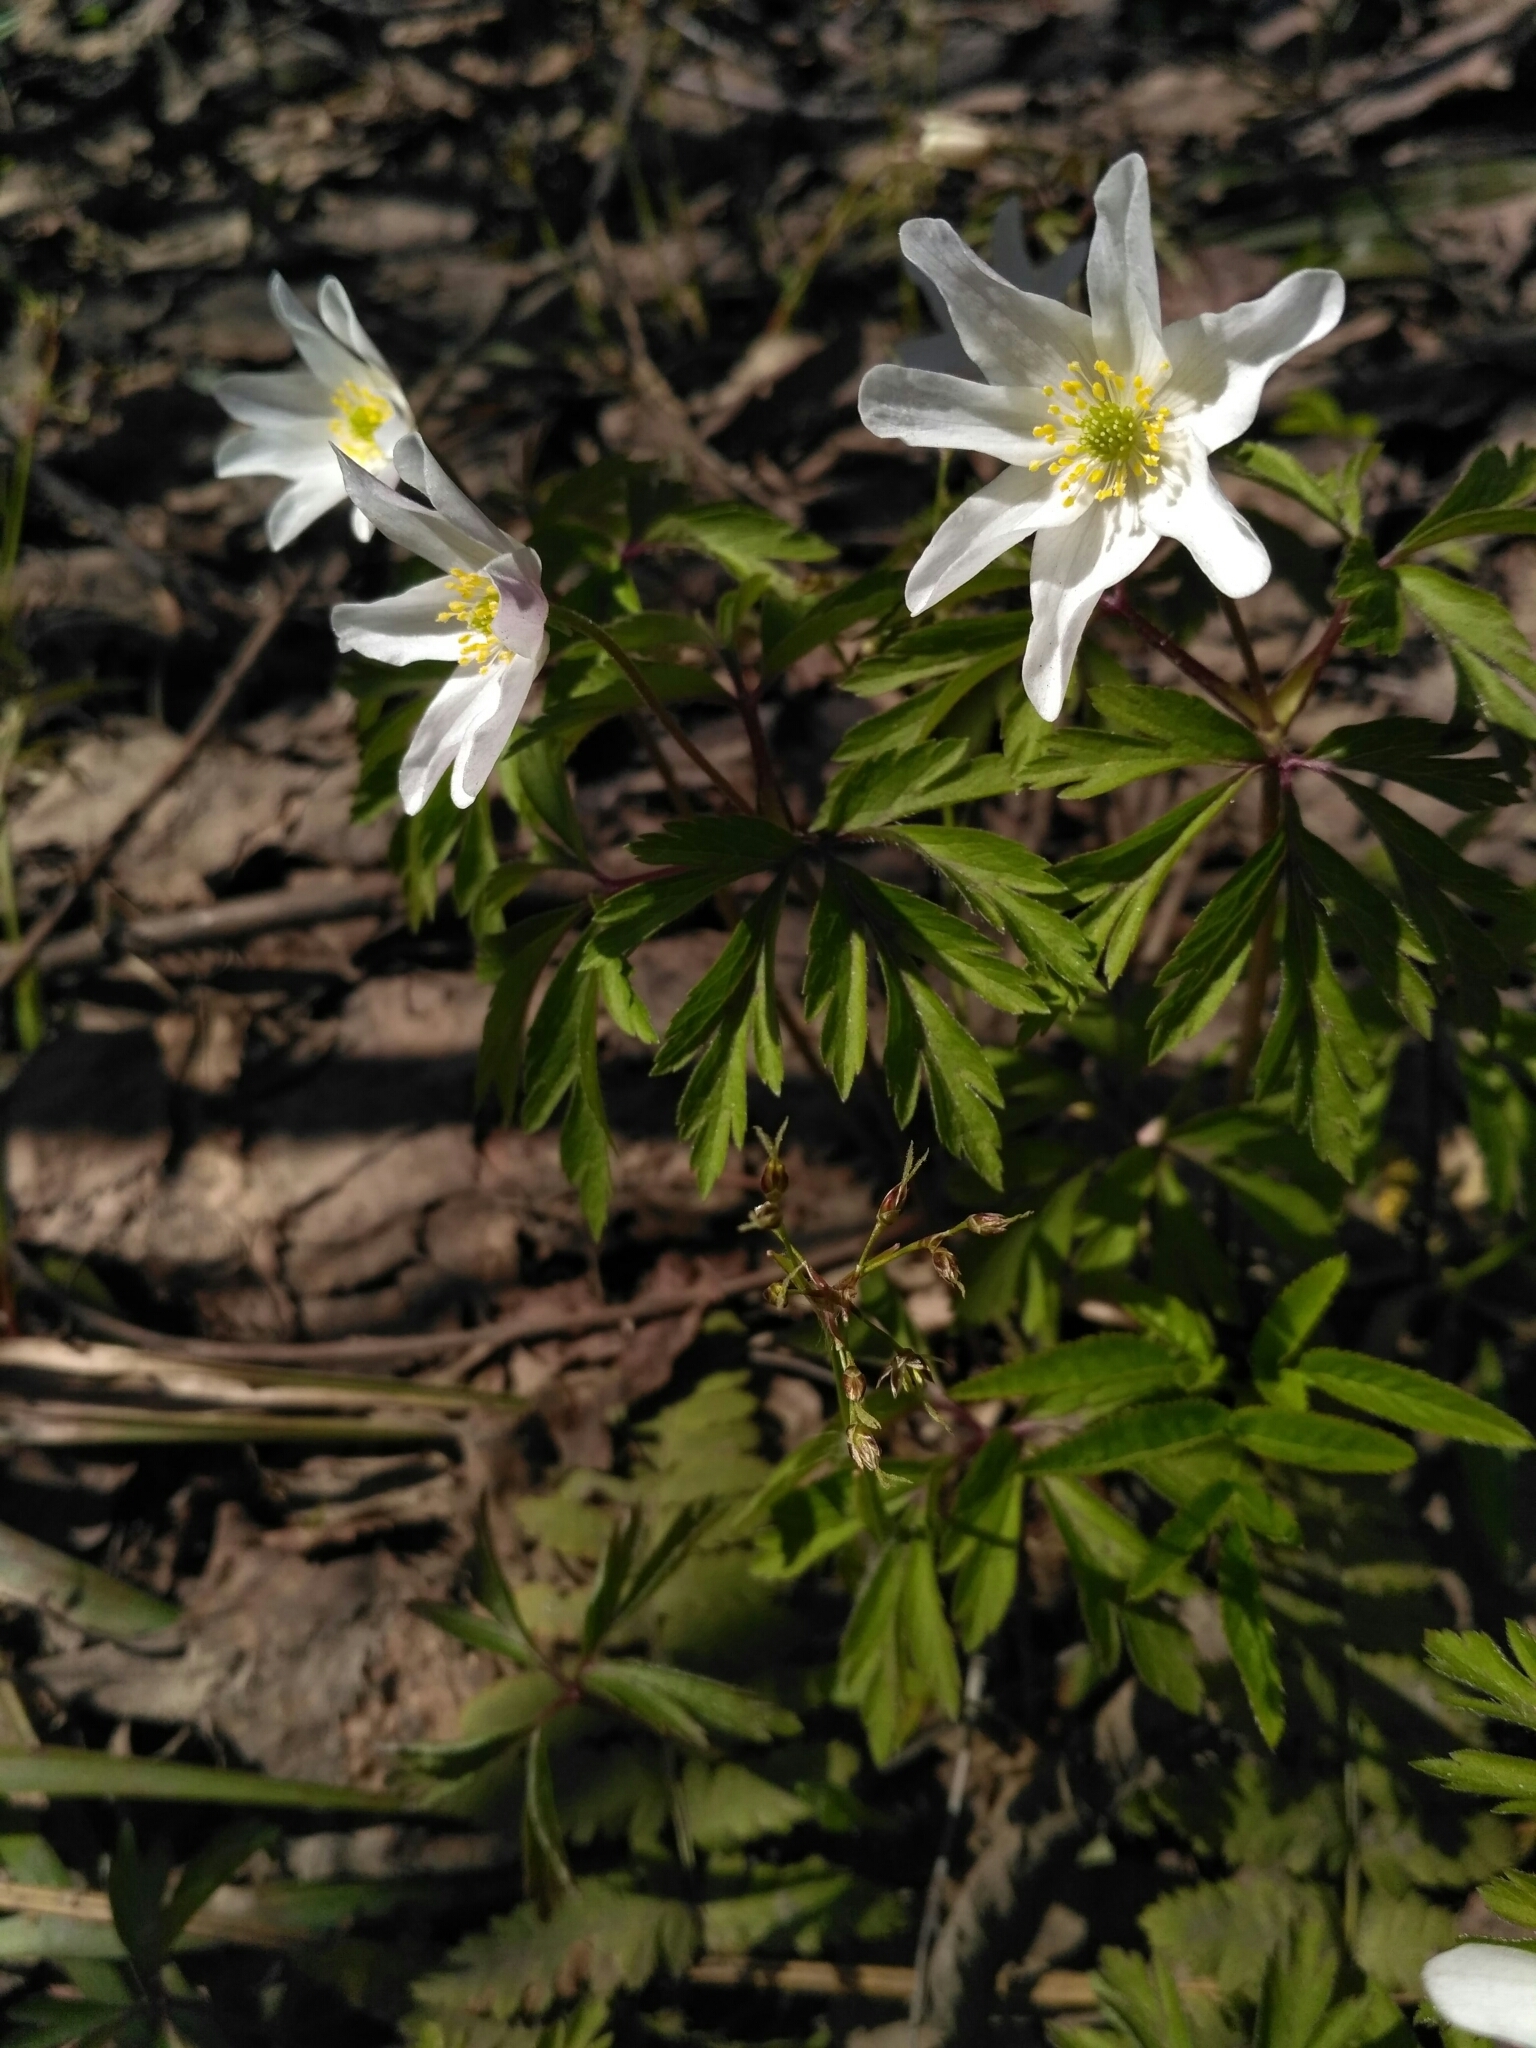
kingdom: Plantae
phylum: Tracheophyta
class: Magnoliopsida
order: Ranunculales
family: Ranunculaceae
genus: Anemone
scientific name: Anemone nemorosa
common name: Wood anemone
